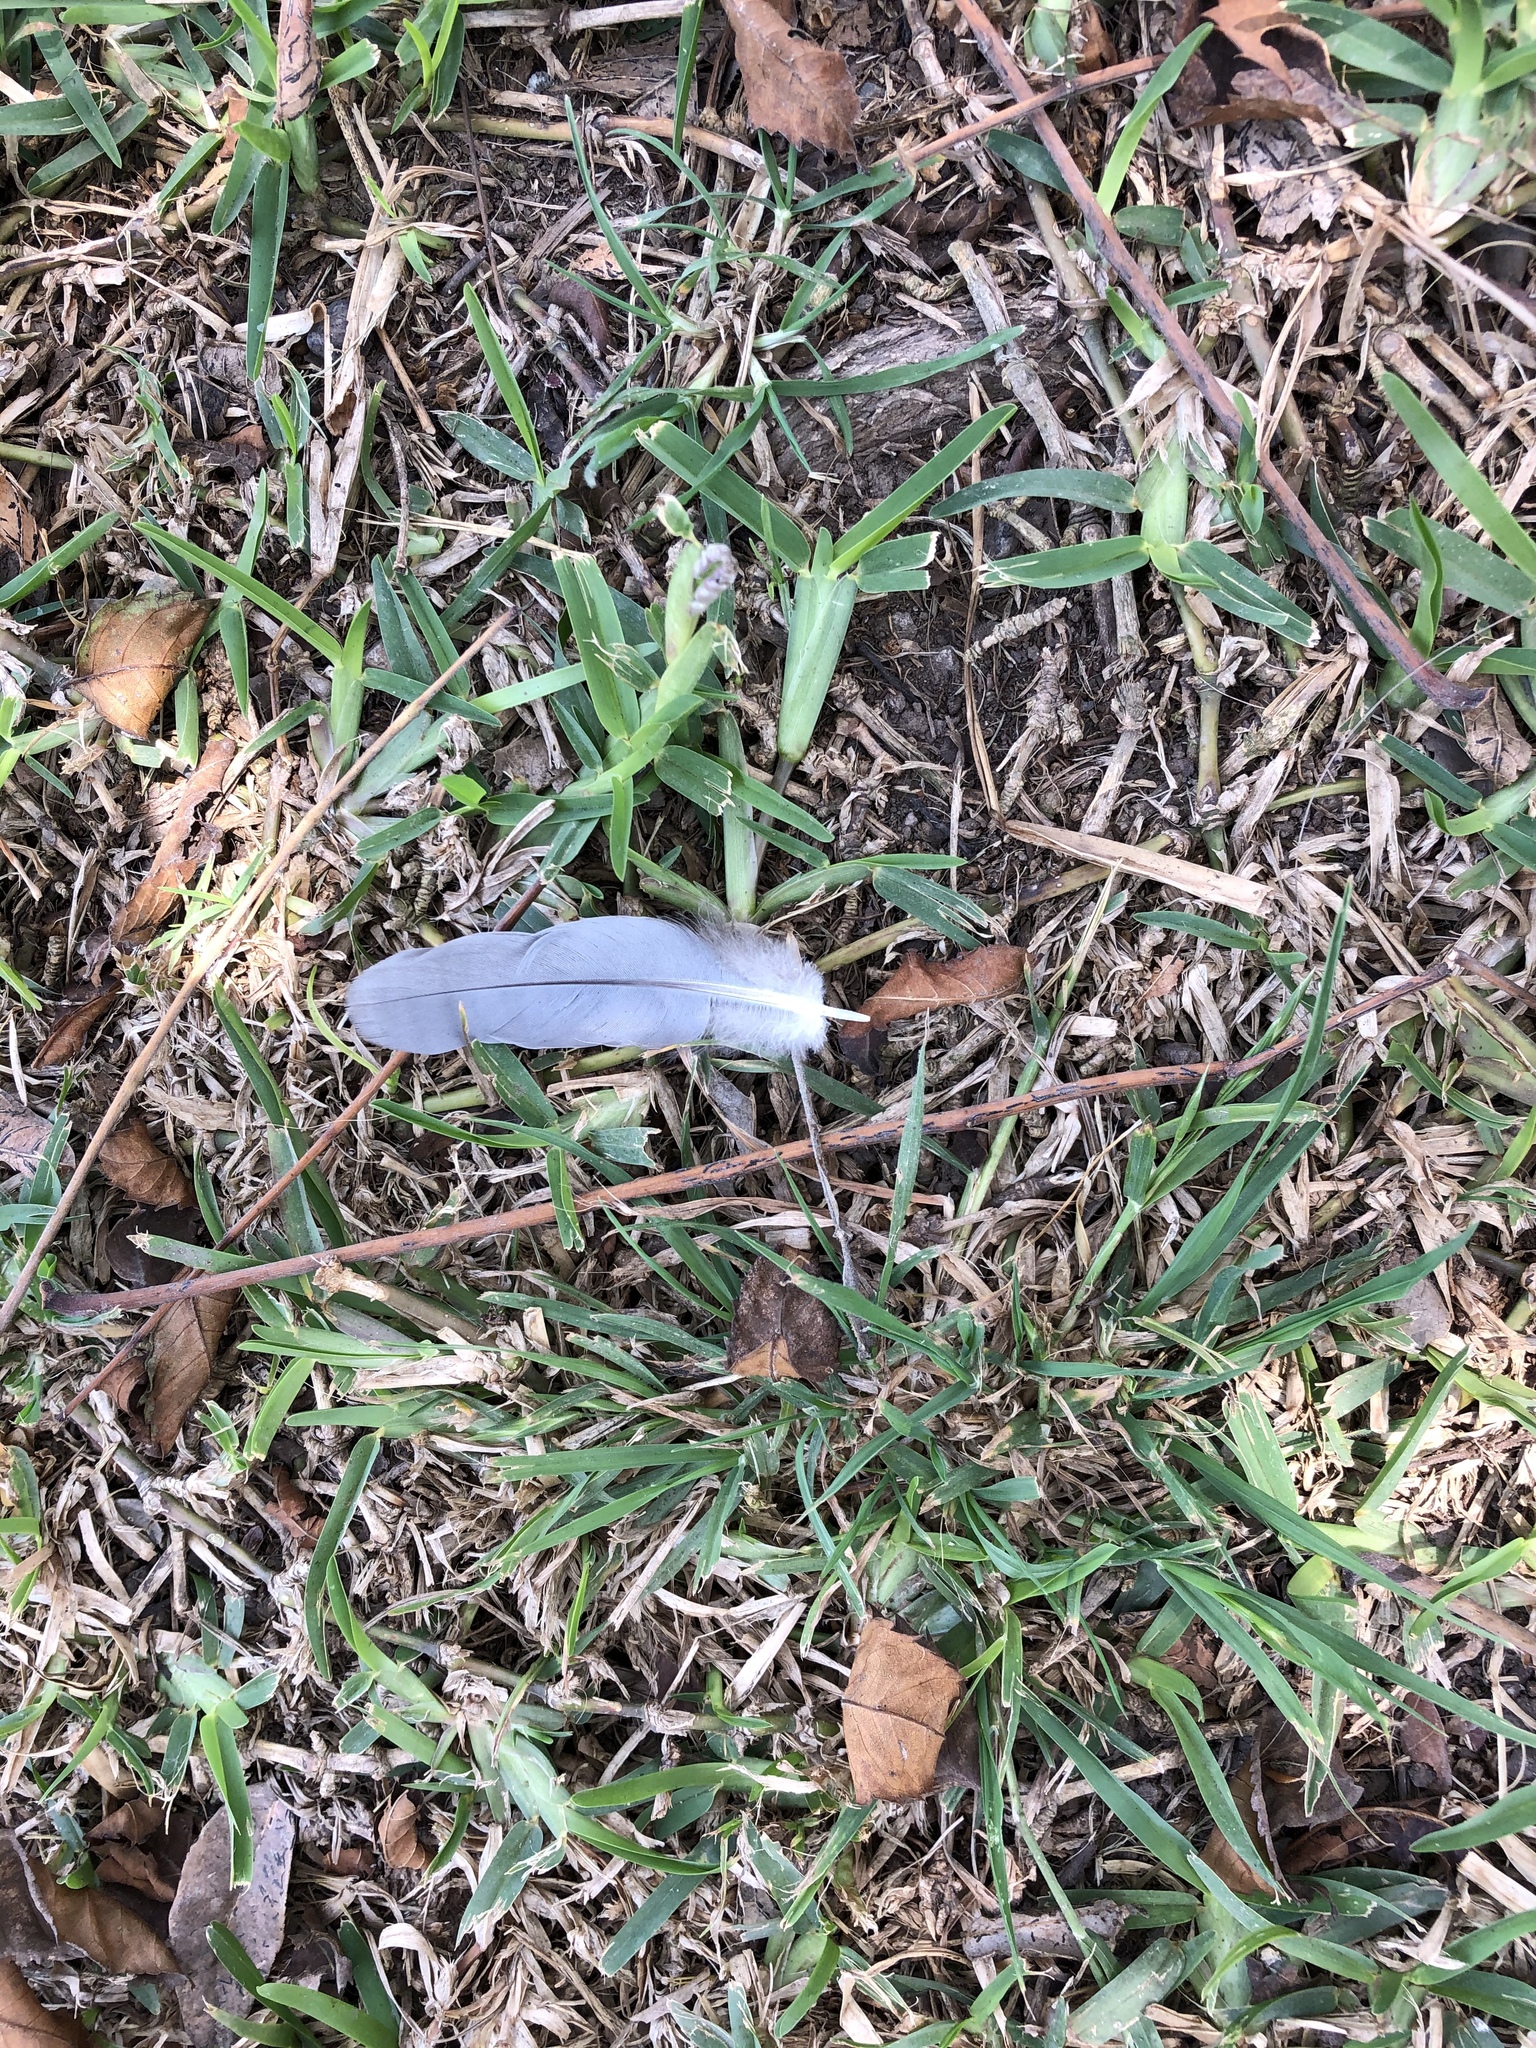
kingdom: Animalia
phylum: Chordata
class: Aves
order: Columbiformes
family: Columbidae
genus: Zenaida
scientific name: Zenaida meloda
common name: West peruvian dove
